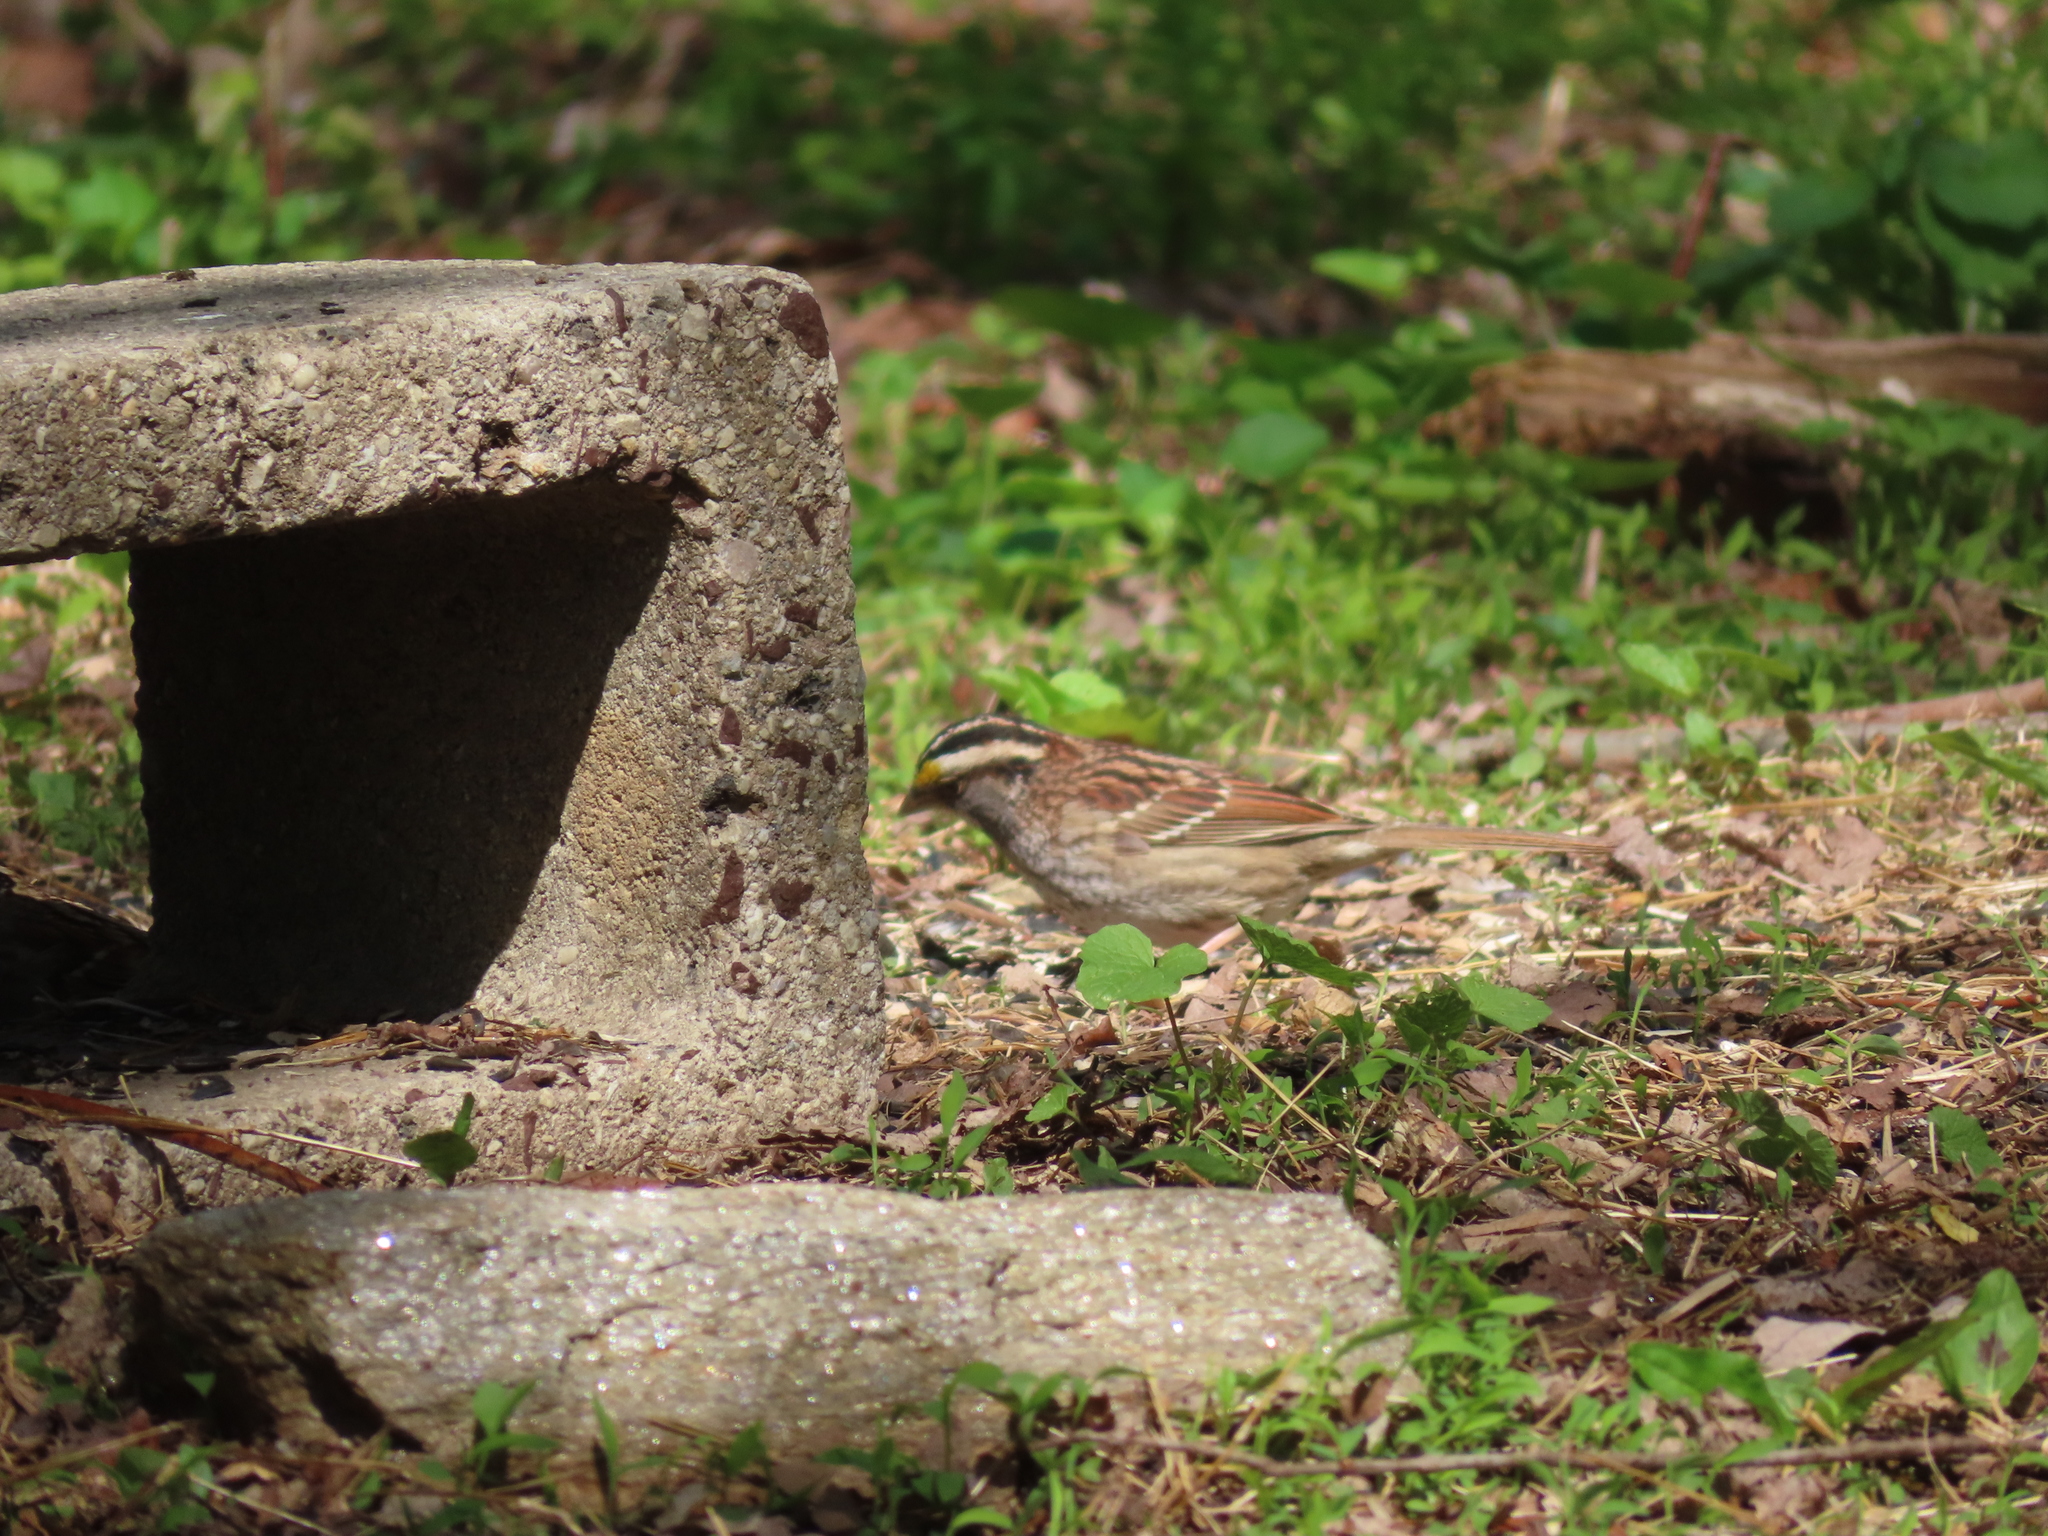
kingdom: Animalia
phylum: Chordata
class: Aves
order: Passeriformes
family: Passerellidae
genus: Zonotrichia
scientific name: Zonotrichia albicollis
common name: White-throated sparrow
